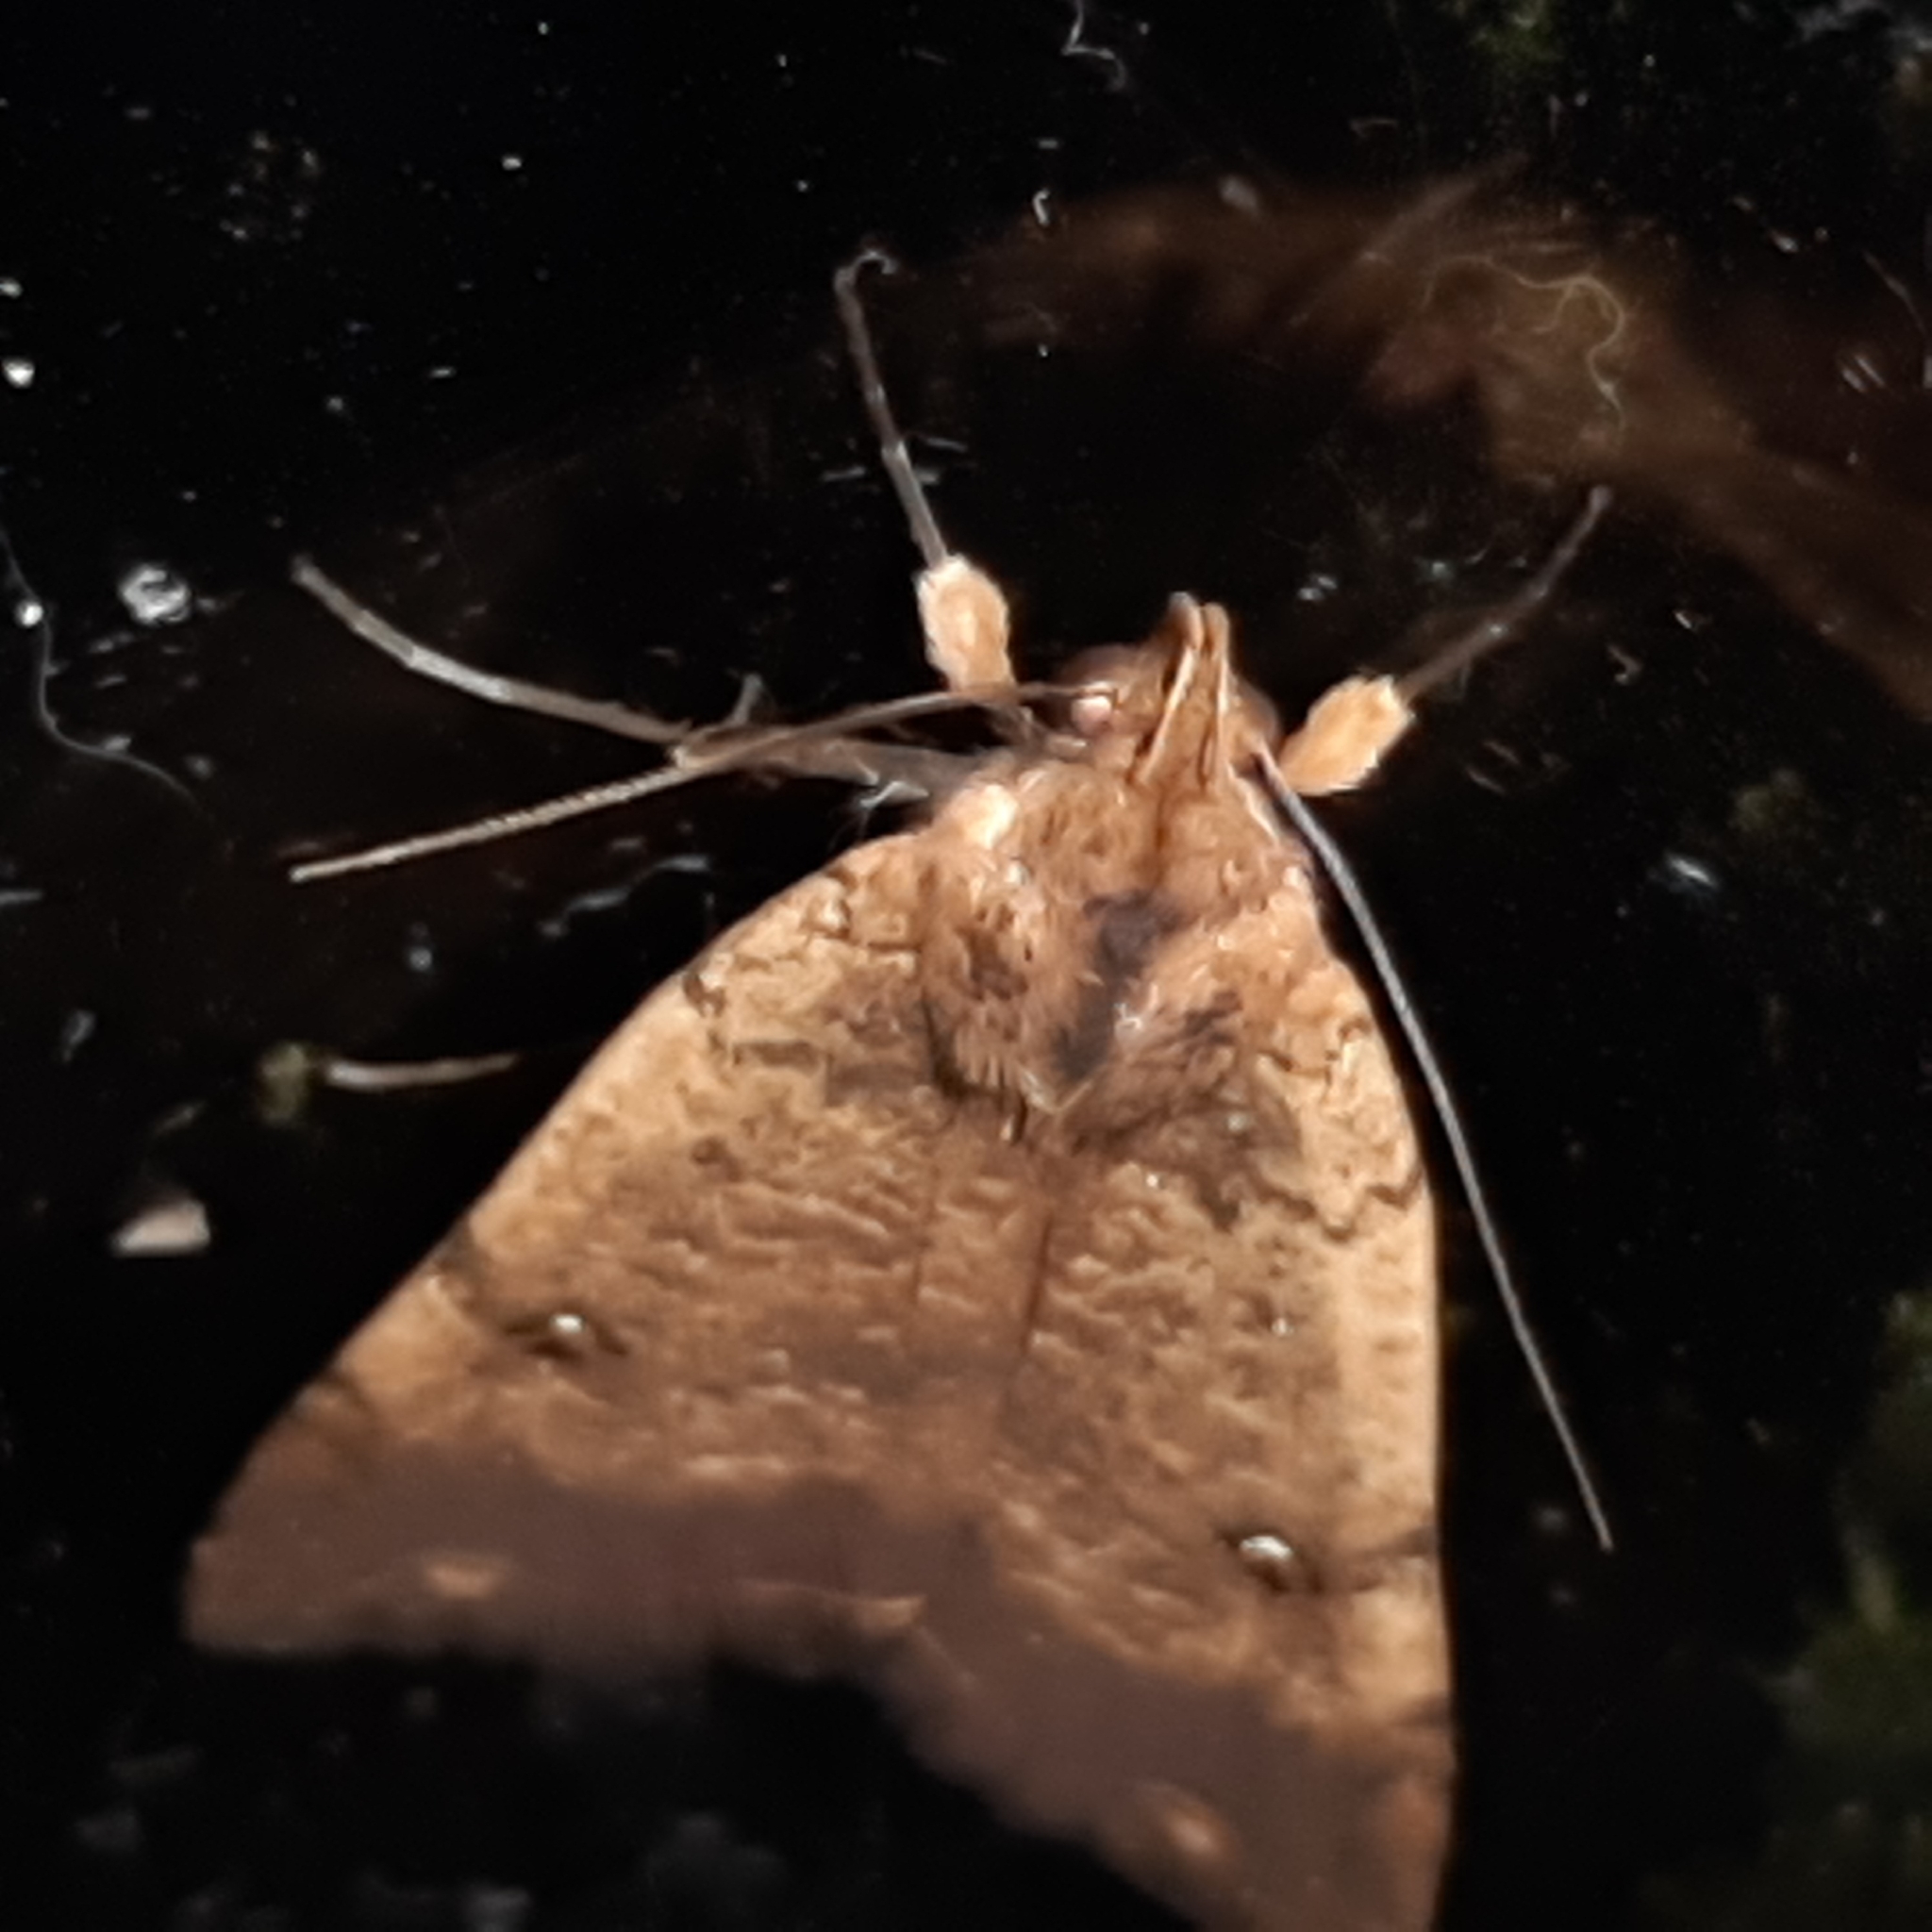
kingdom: Animalia
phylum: Arthropoda
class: Insecta
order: Lepidoptera
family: Erebidae
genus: Pyrgion
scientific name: Pyrgion repanda
